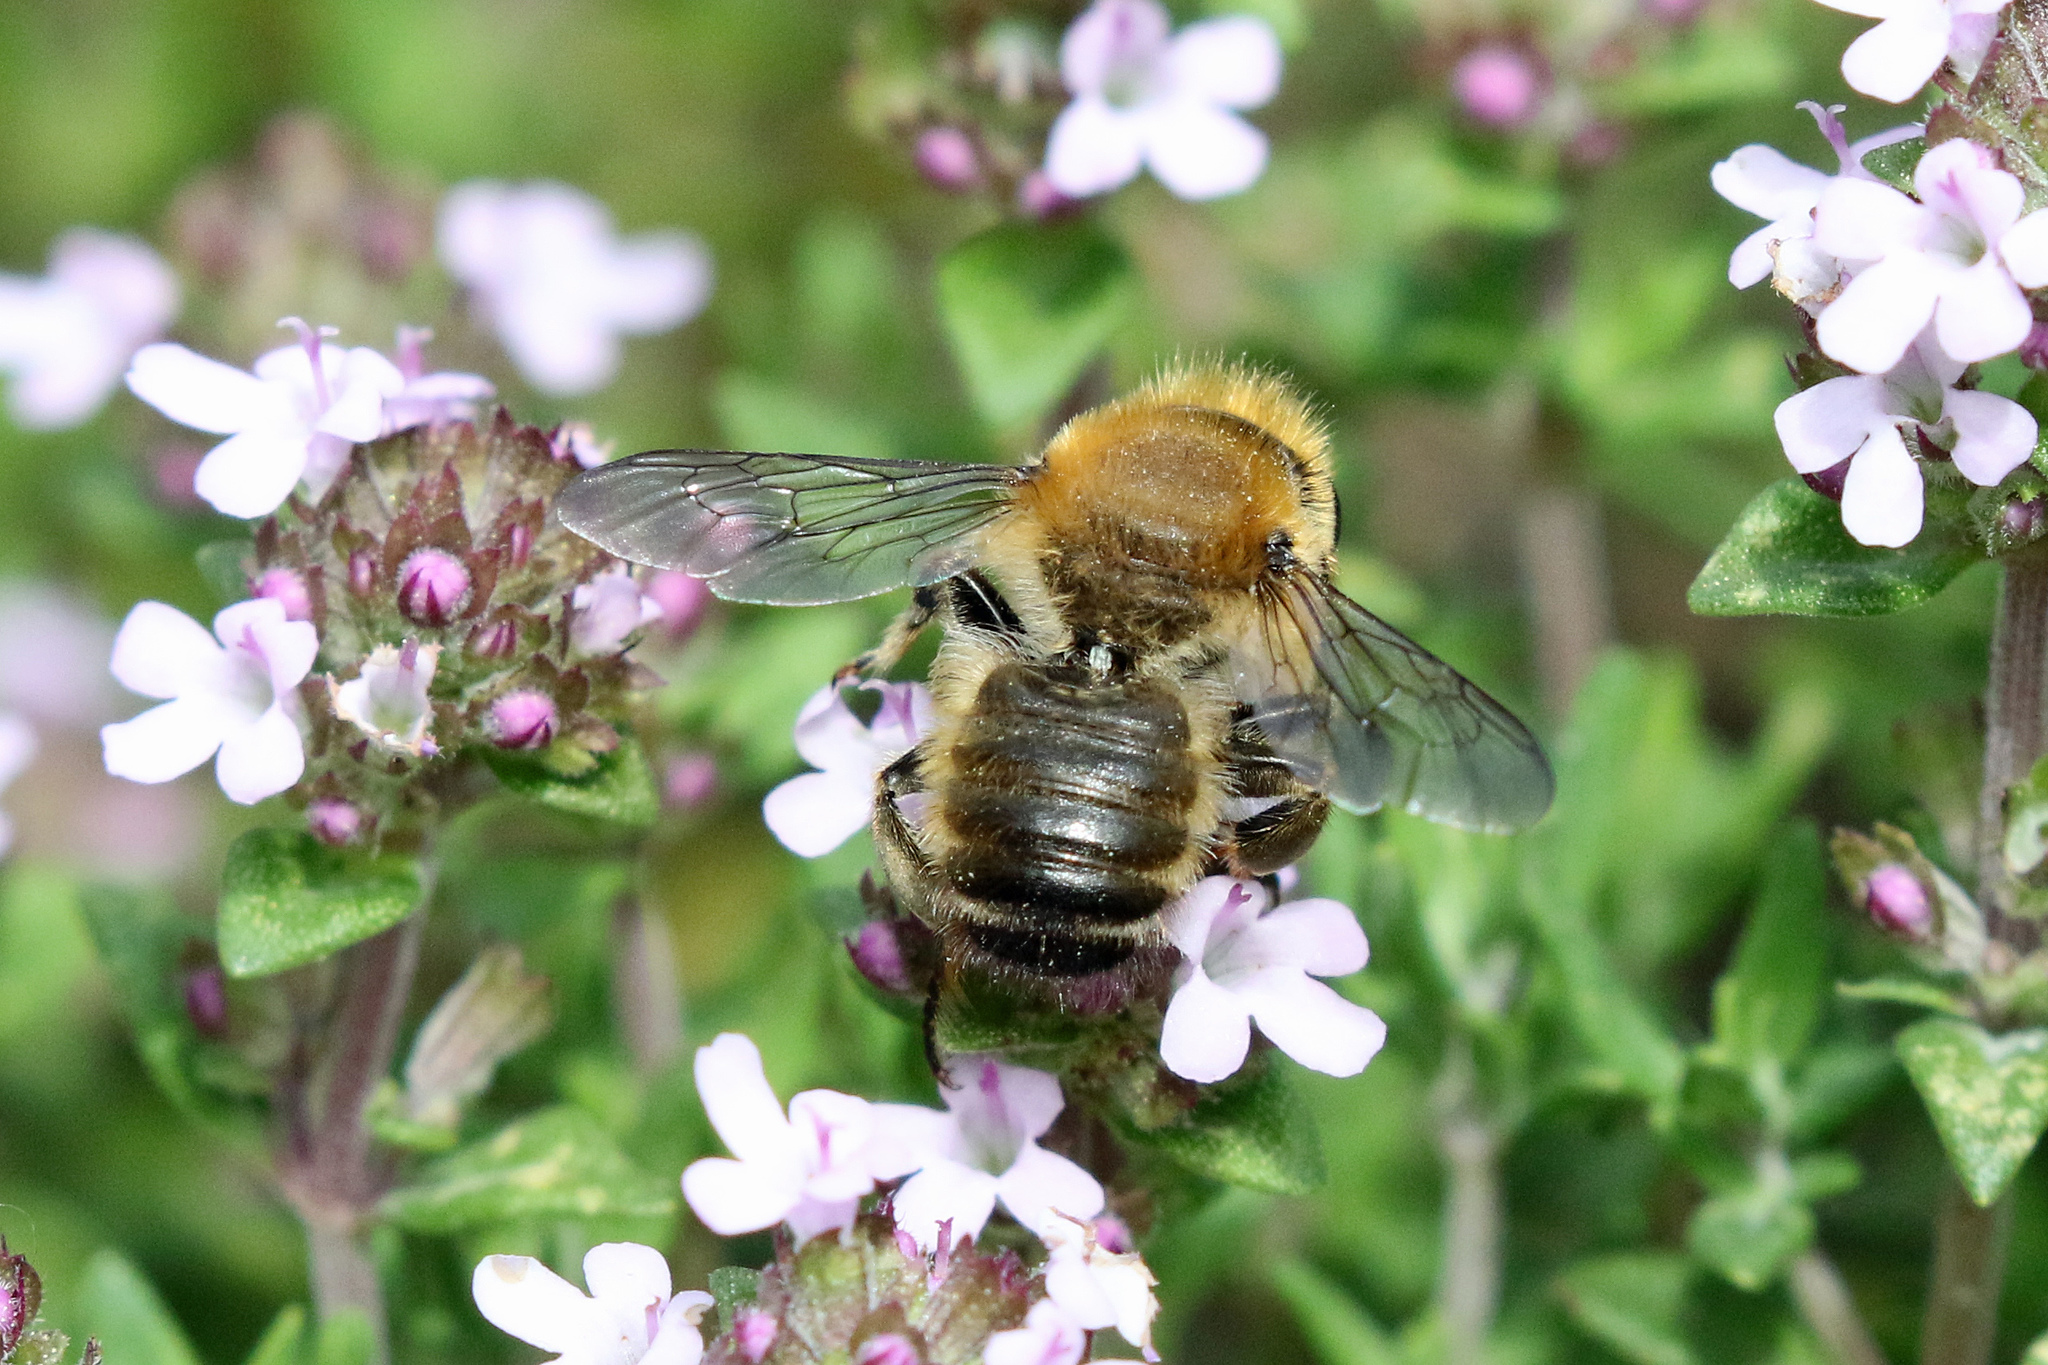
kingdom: Animalia
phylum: Arthropoda
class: Insecta
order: Hymenoptera
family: Megachilidae
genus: Megachile
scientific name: Megachile willughbiella
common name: Willughby's leafcutter bee
